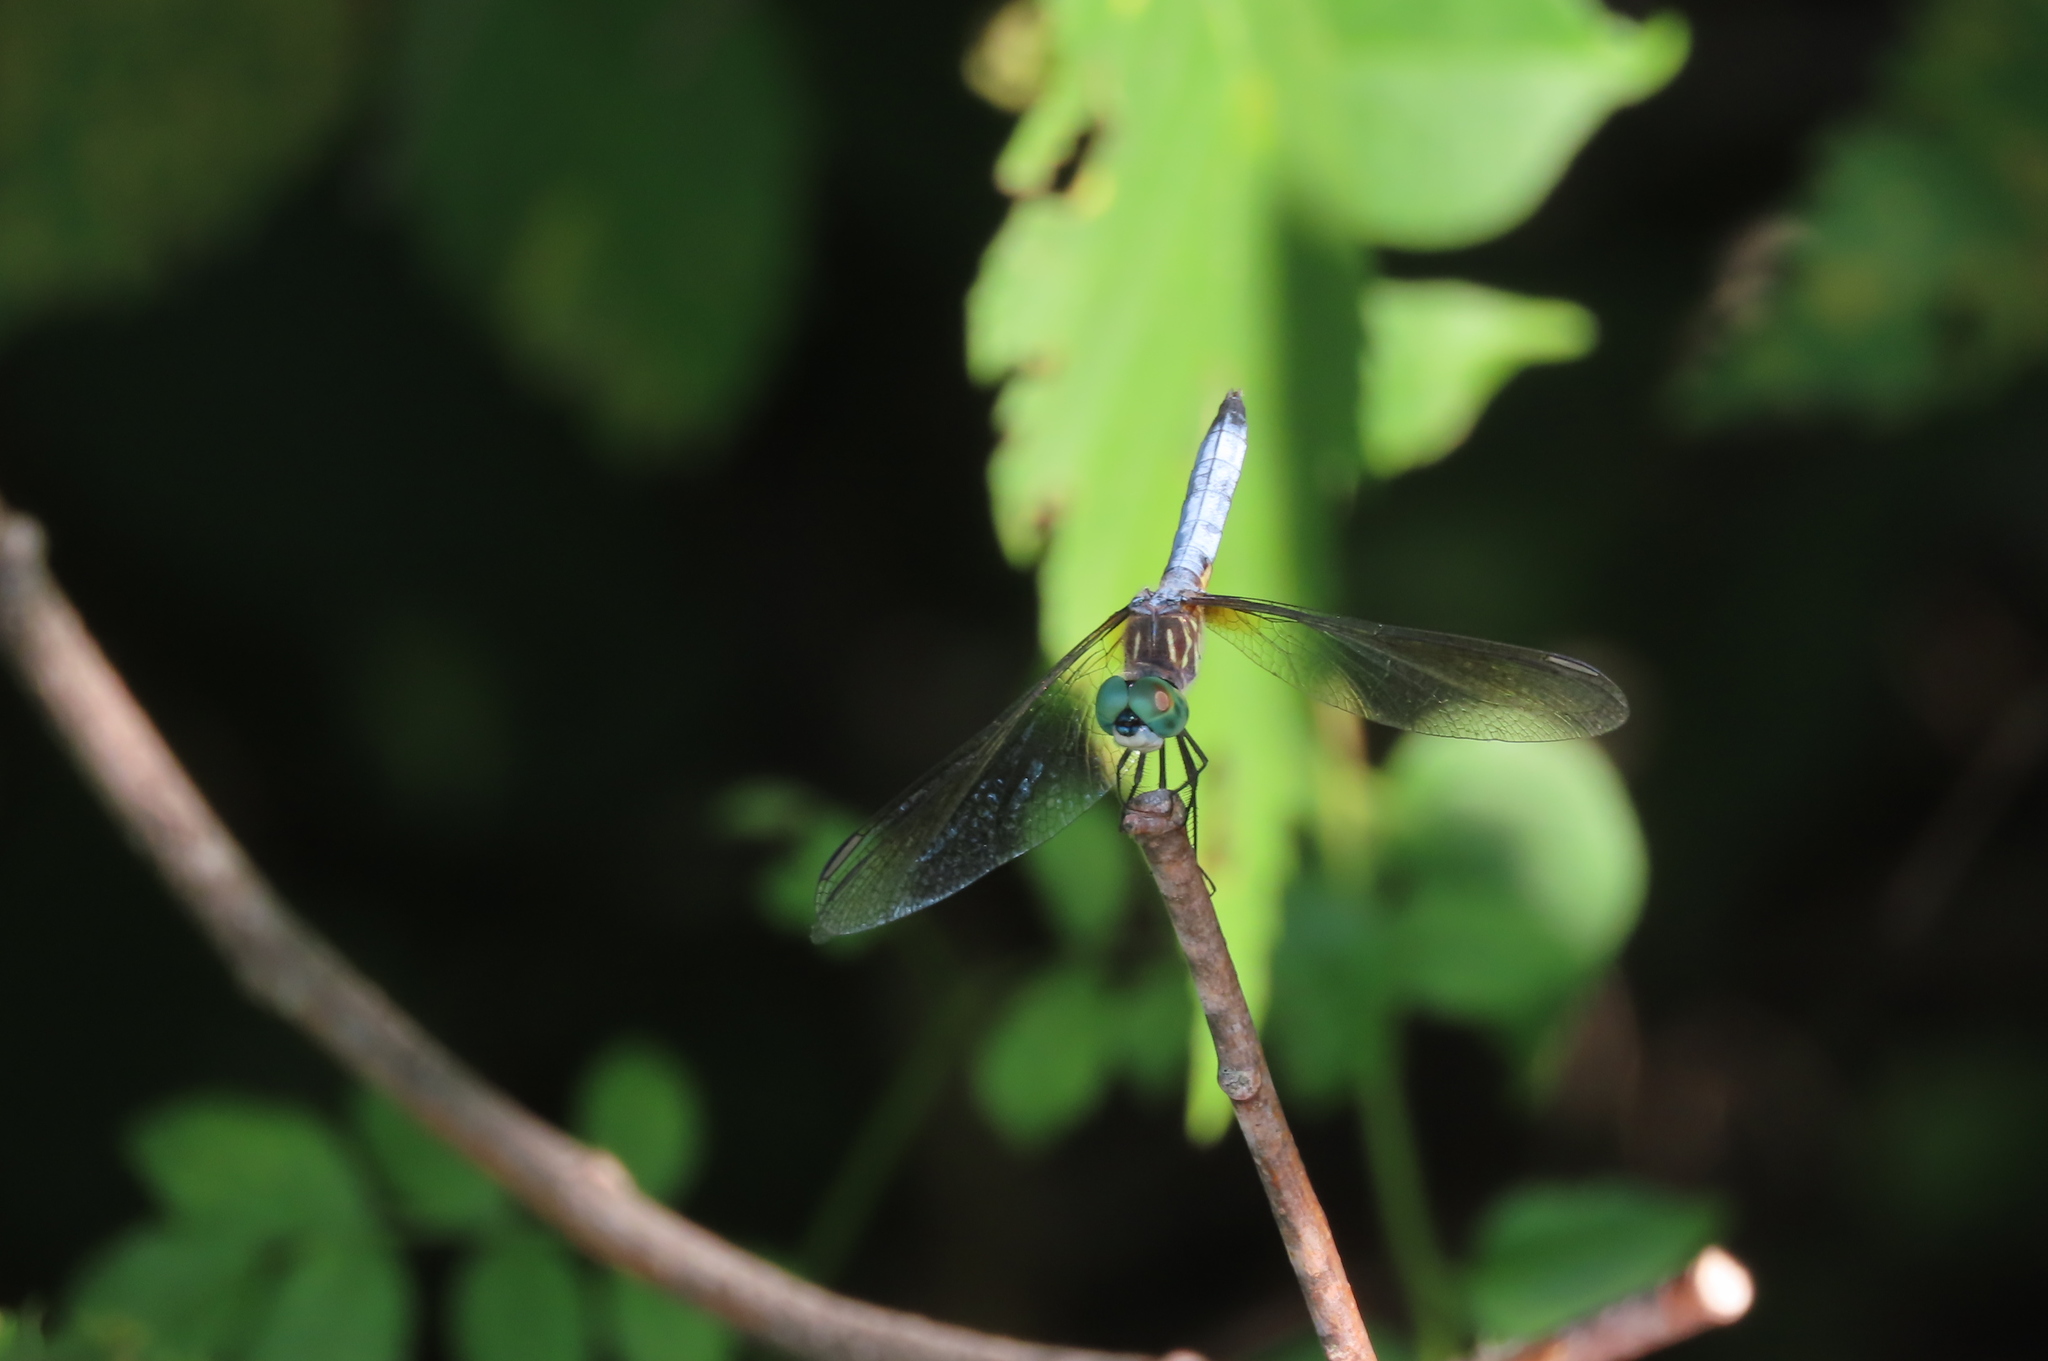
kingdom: Animalia
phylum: Arthropoda
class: Insecta
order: Odonata
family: Libellulidae
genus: Pachydiplax
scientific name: Pachydiplax longipennis
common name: Blue dasher
